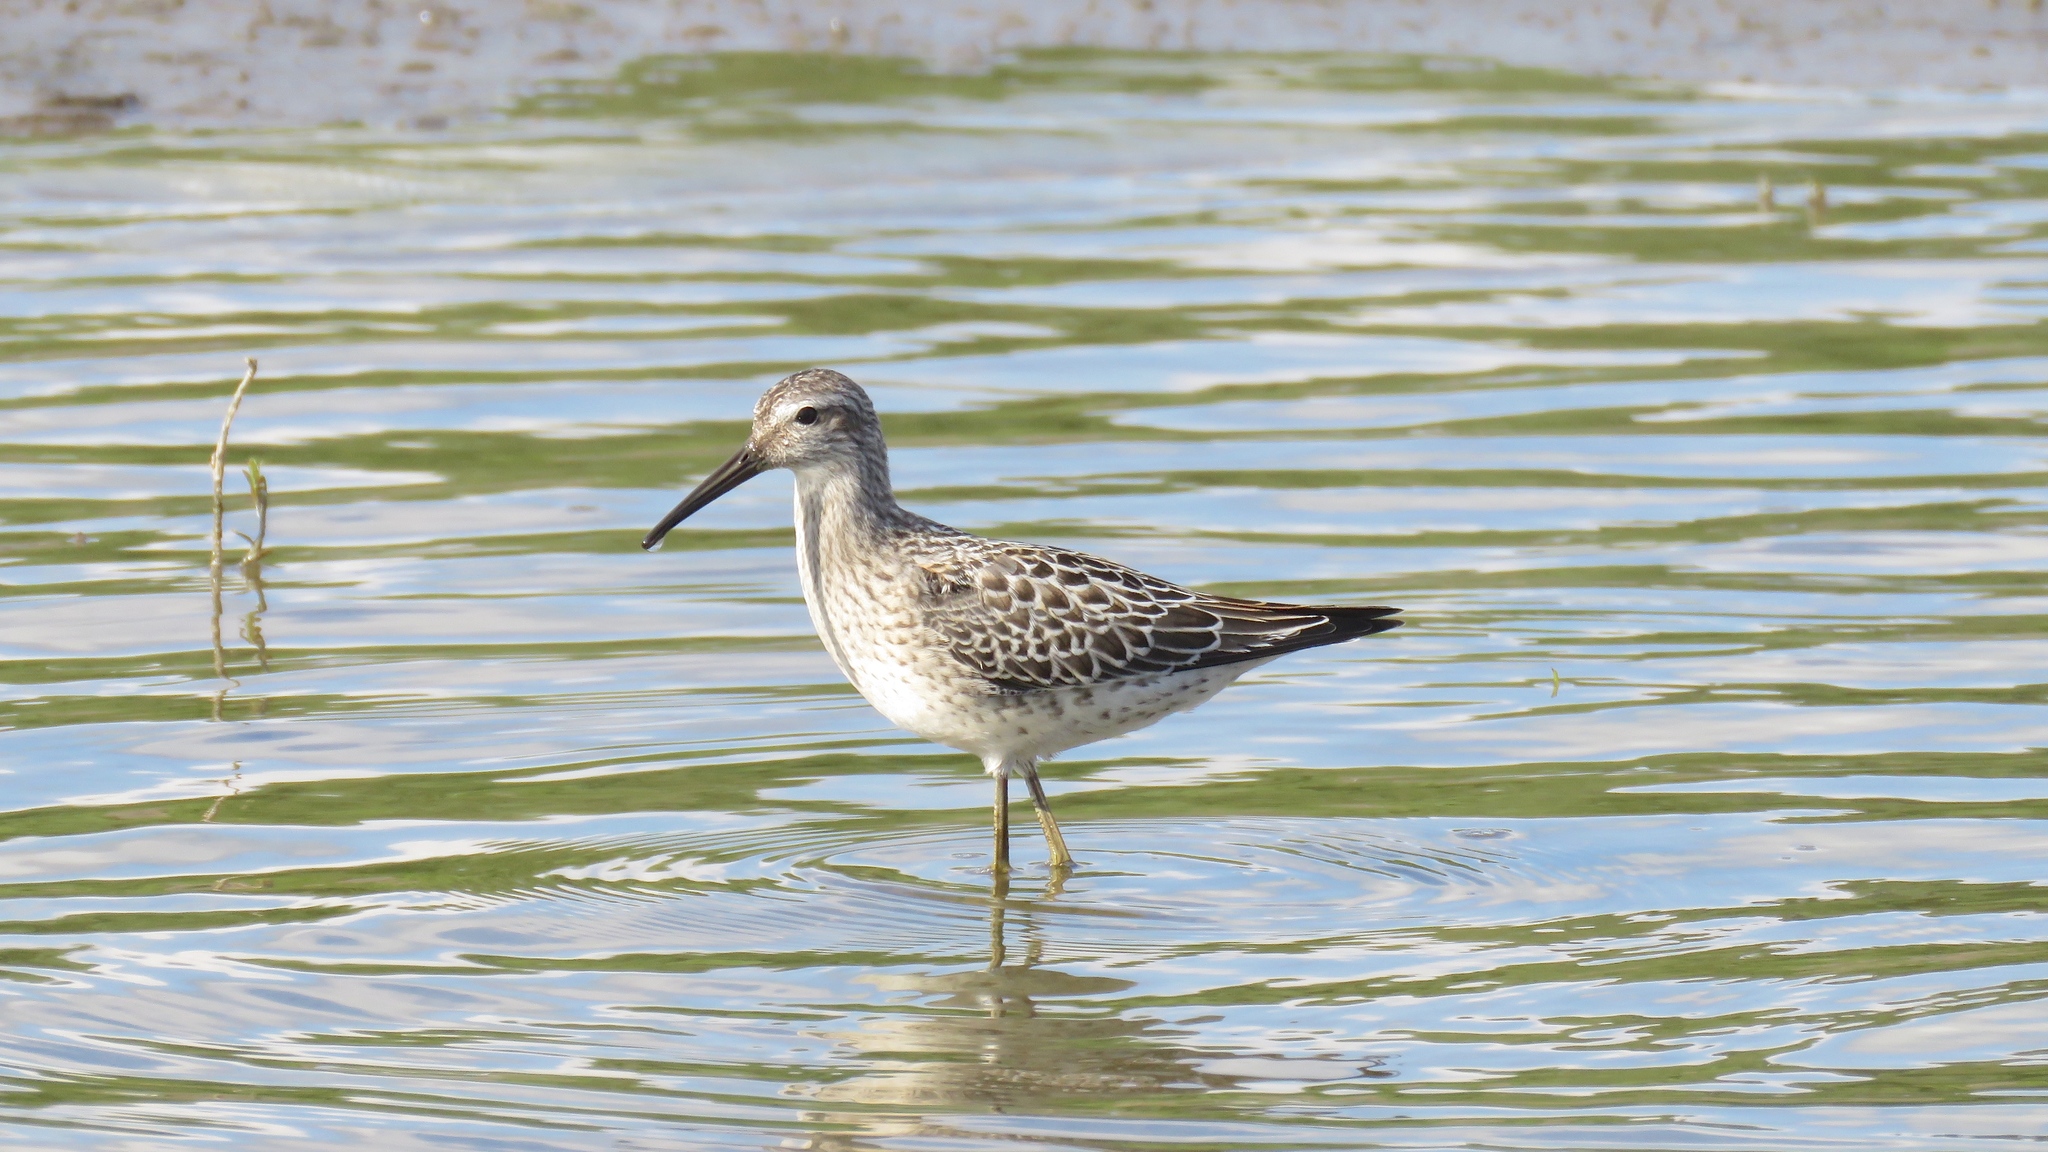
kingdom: Animalia
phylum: Chordata
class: Aves
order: Charadriiformes
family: Scolopacidae
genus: Calidris
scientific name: Calidris himantopus
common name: Stilt sandpiper
